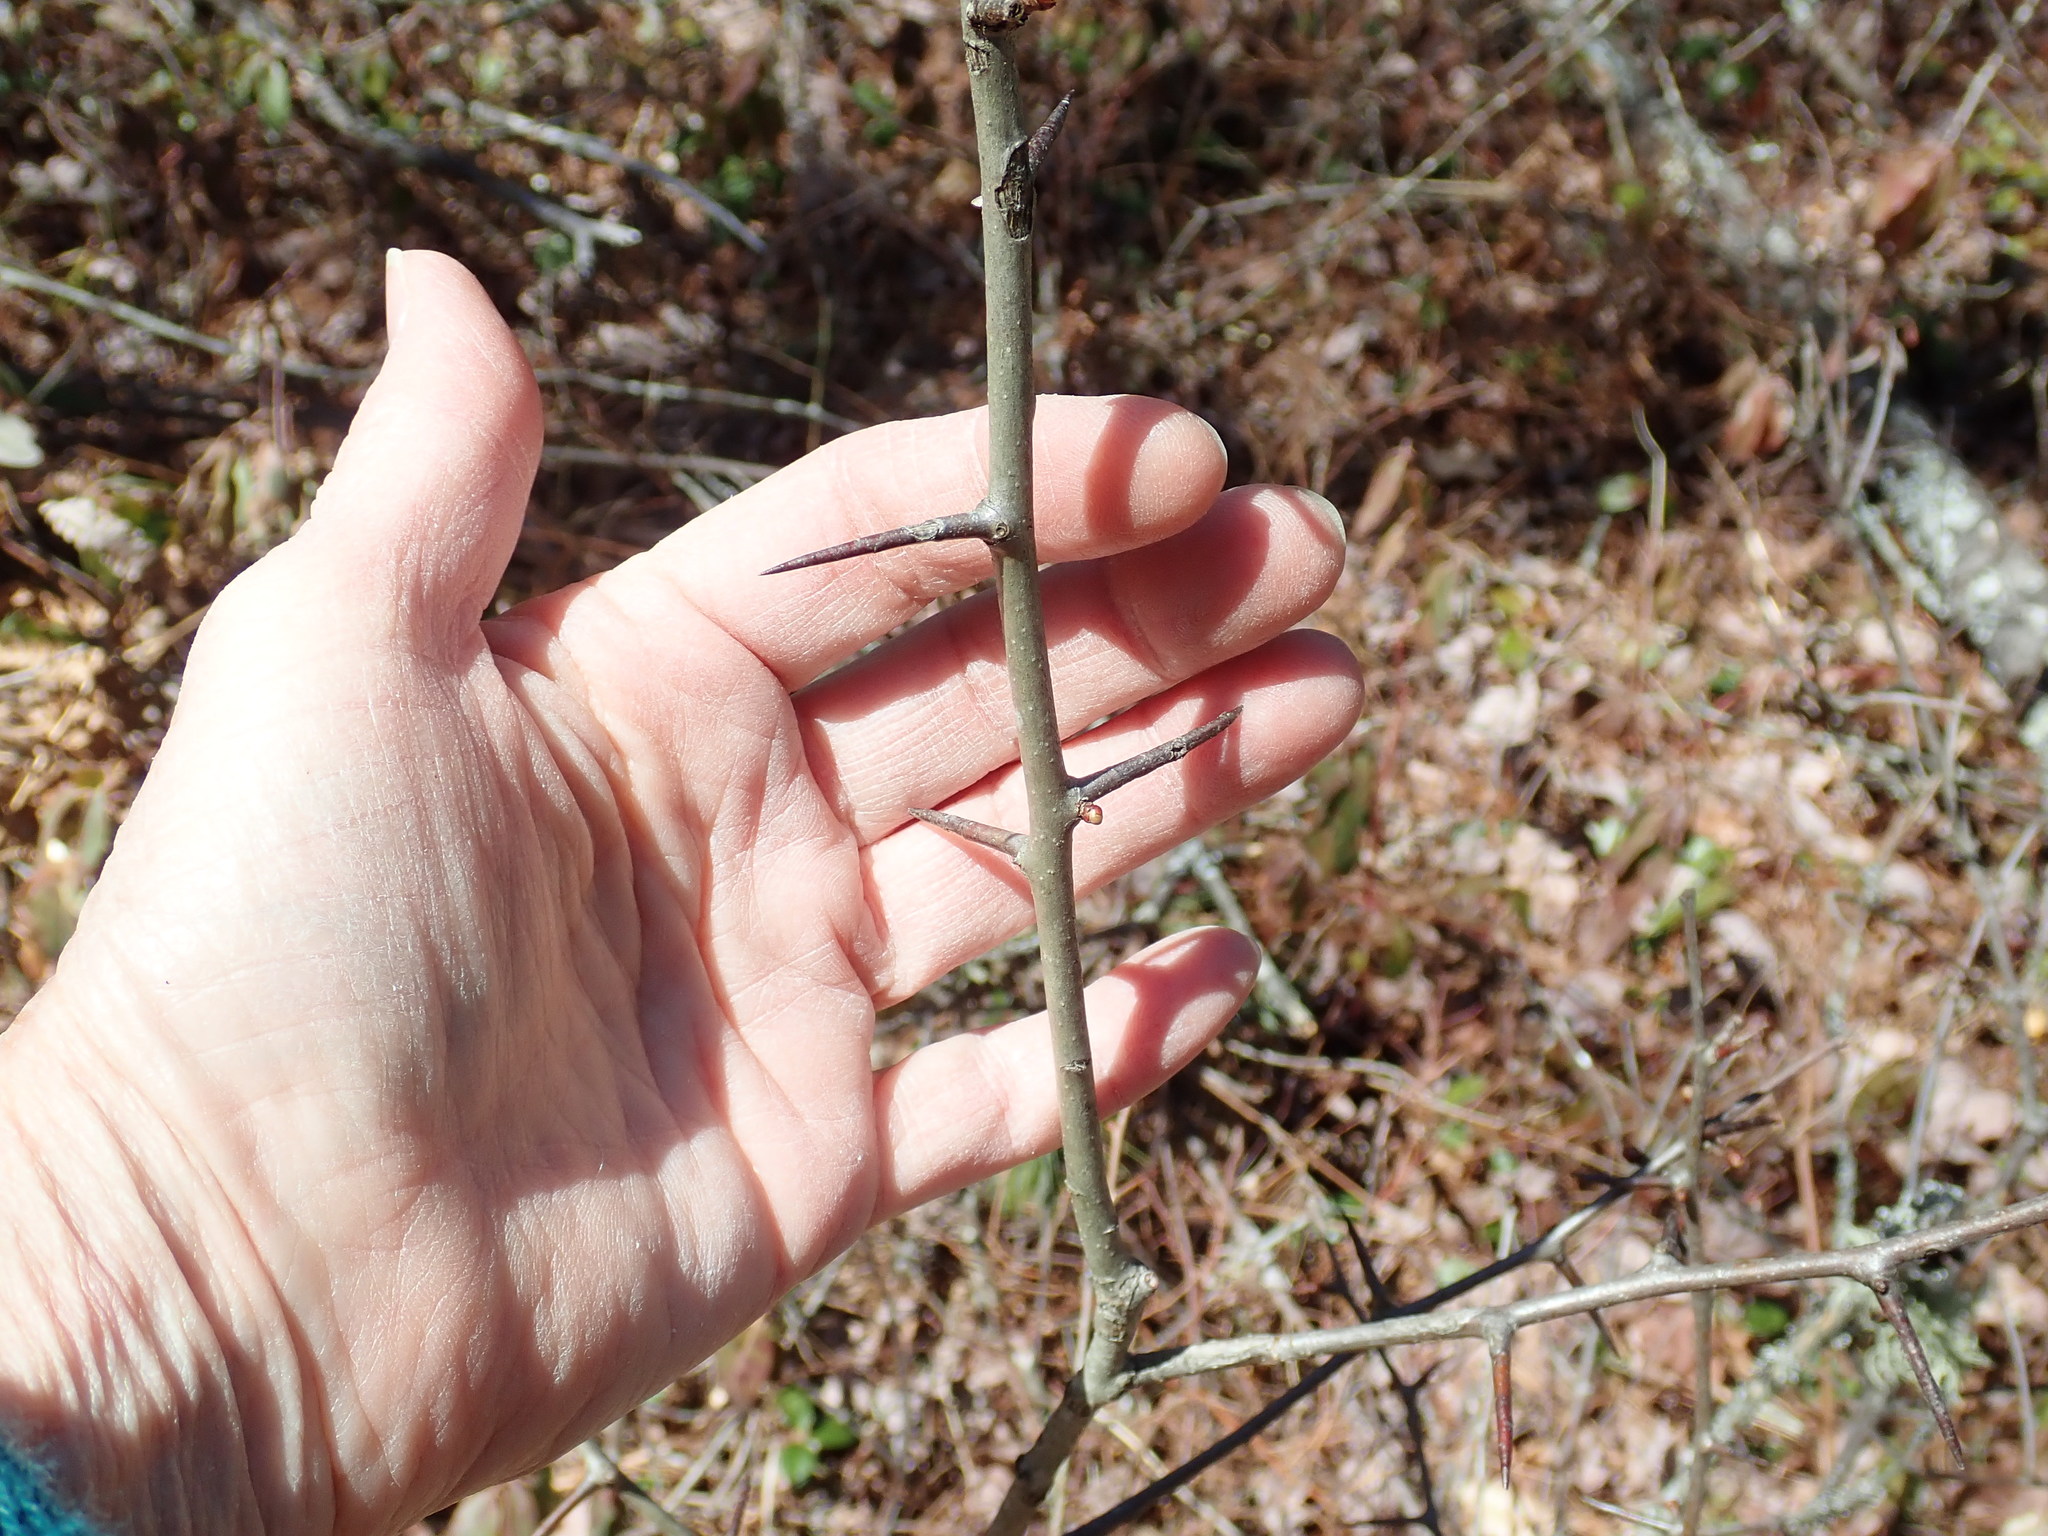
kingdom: Plantae
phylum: Tracheophyta
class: Magnoliopsida
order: Rosales
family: Rosaceae
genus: Crataegus
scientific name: Crataegus
